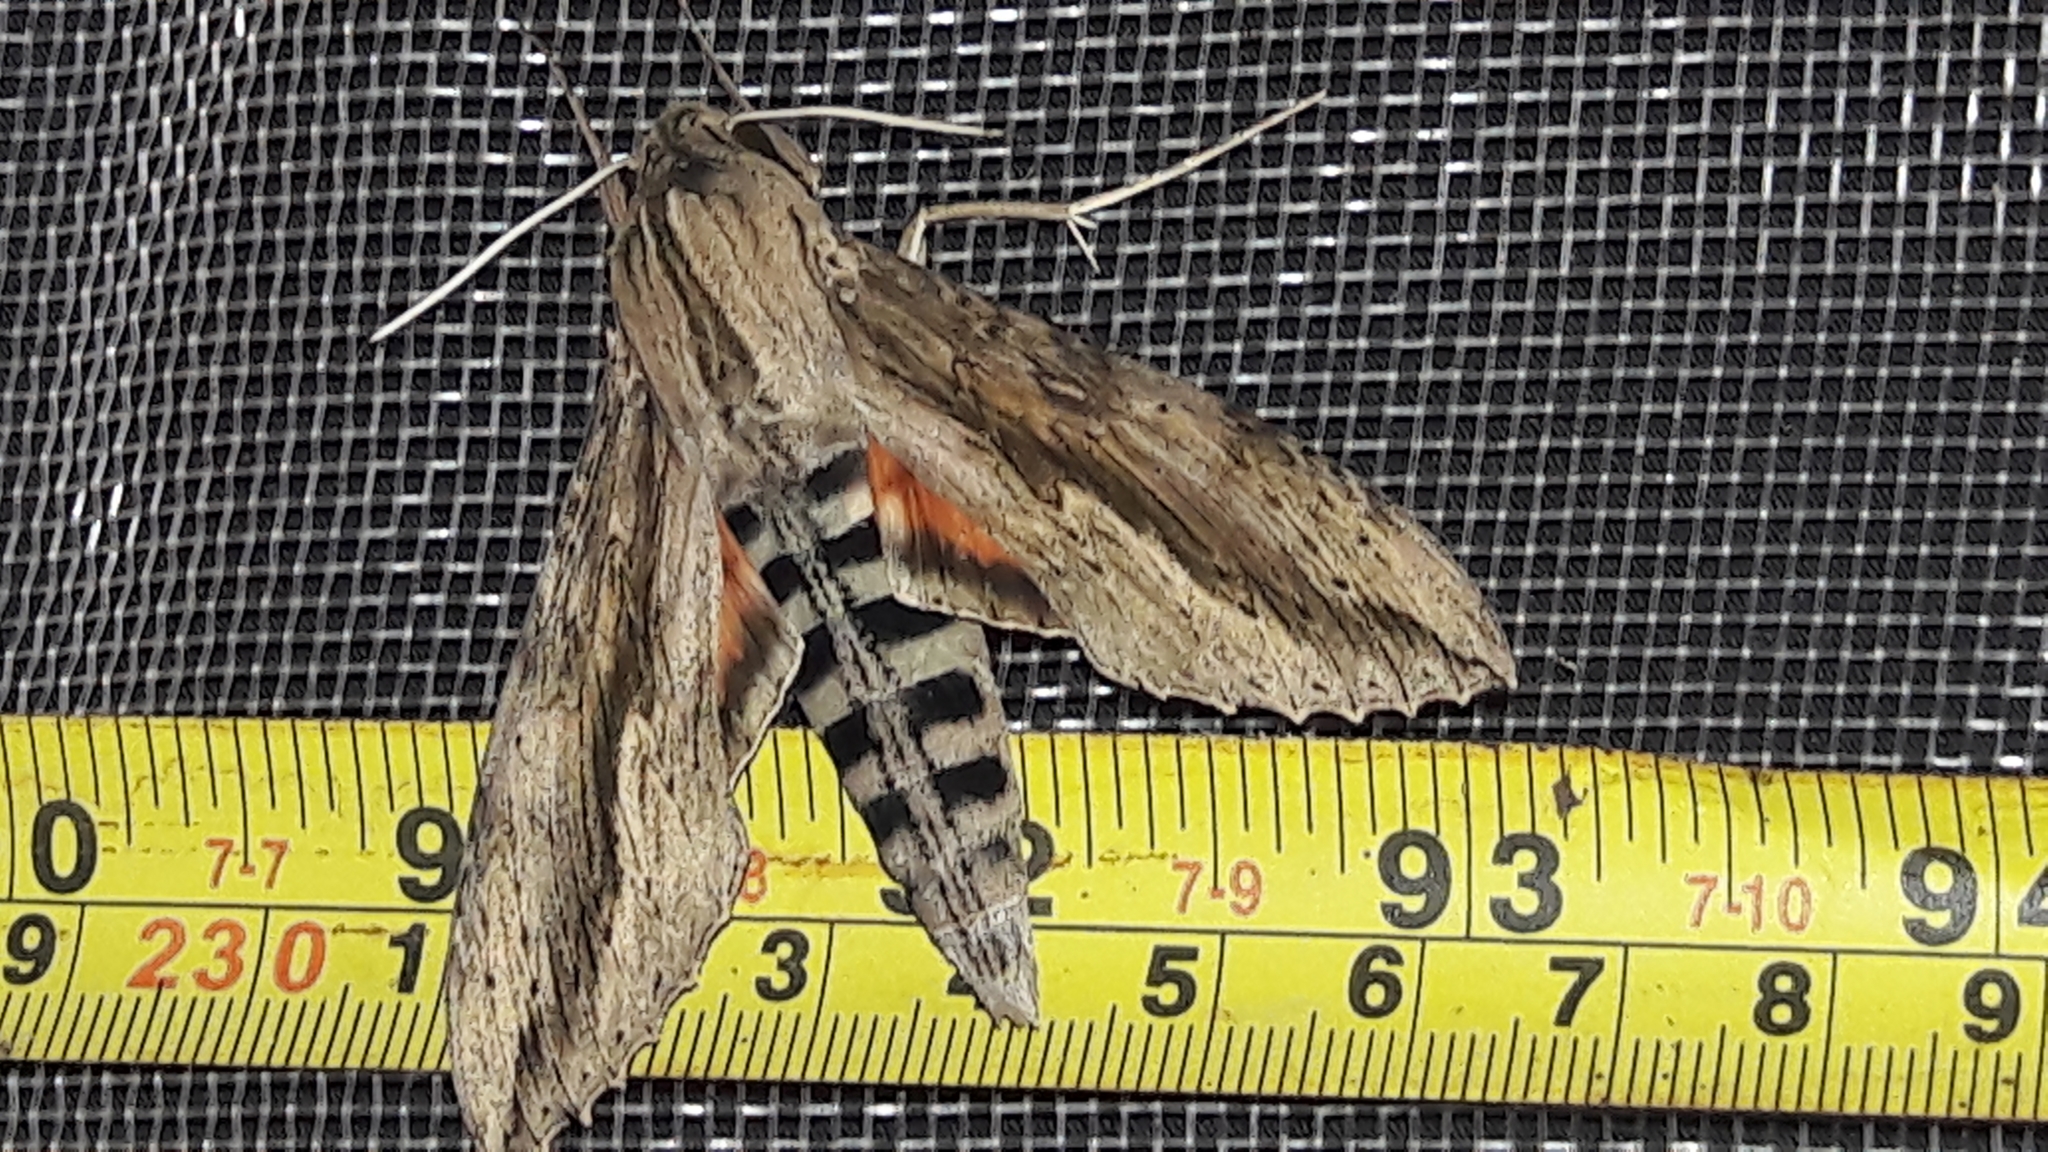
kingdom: Animalia
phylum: Arthropoda
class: Insecta
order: Lepidoptera
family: Sphingidae
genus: Erinnyis
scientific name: Erinnyis ello
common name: Ello sphinx
